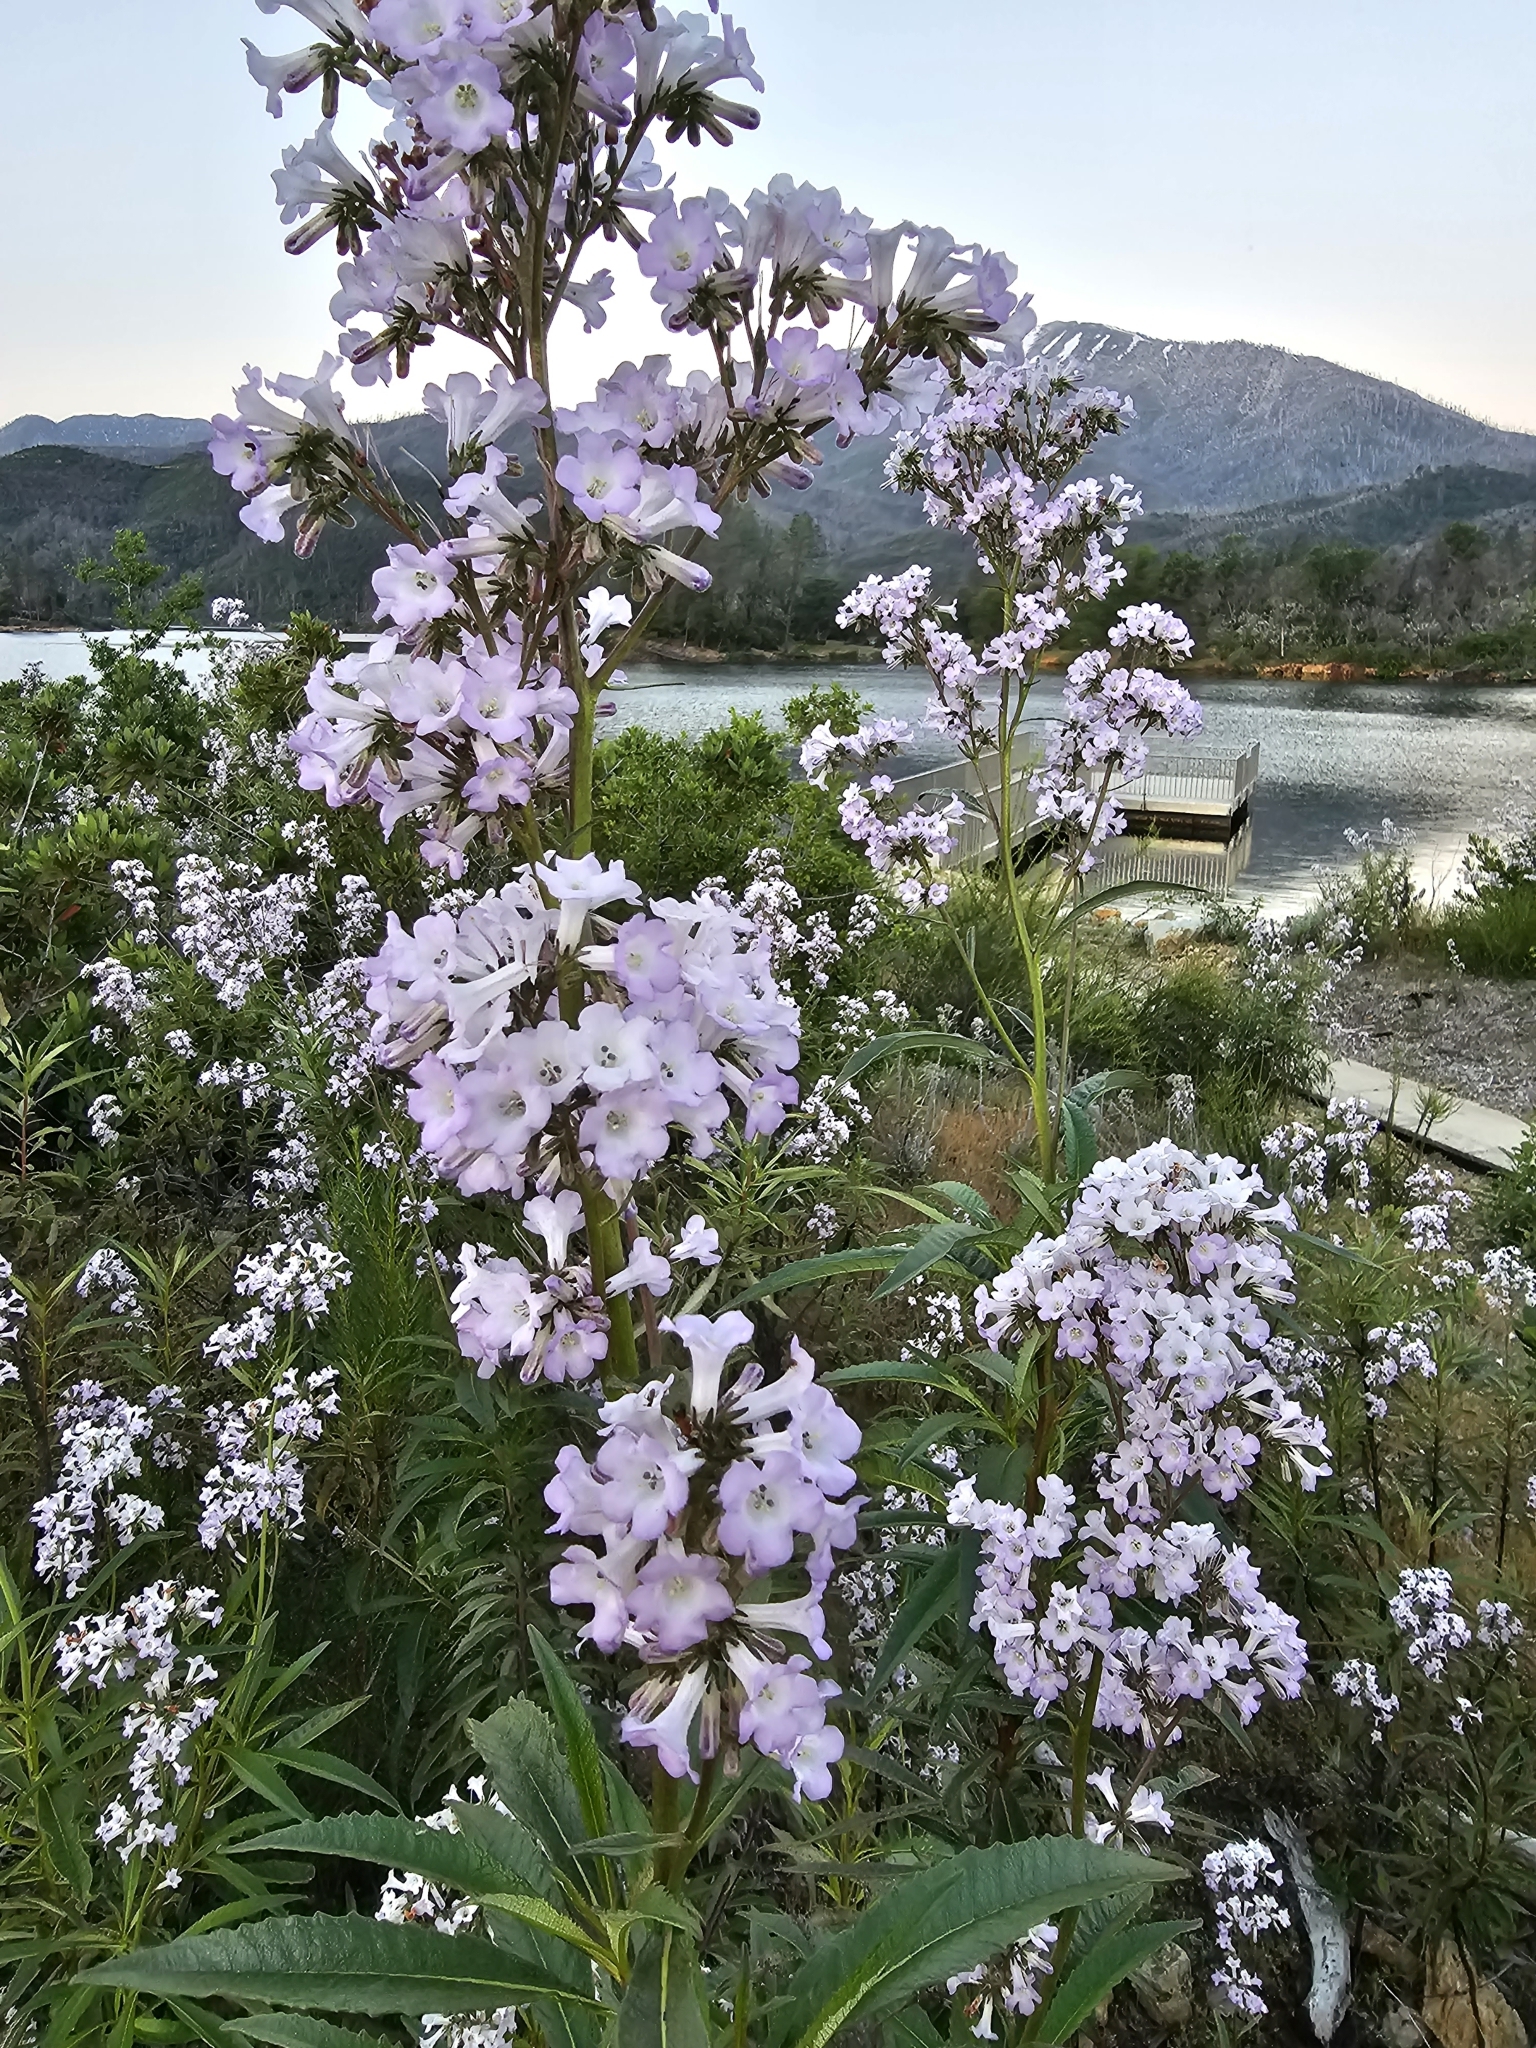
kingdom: Plantae
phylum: Tracheophyta
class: Magnoliopsida
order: Boraginales
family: Namaceae
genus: Eriodictyon
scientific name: Eriodictyon californicum
